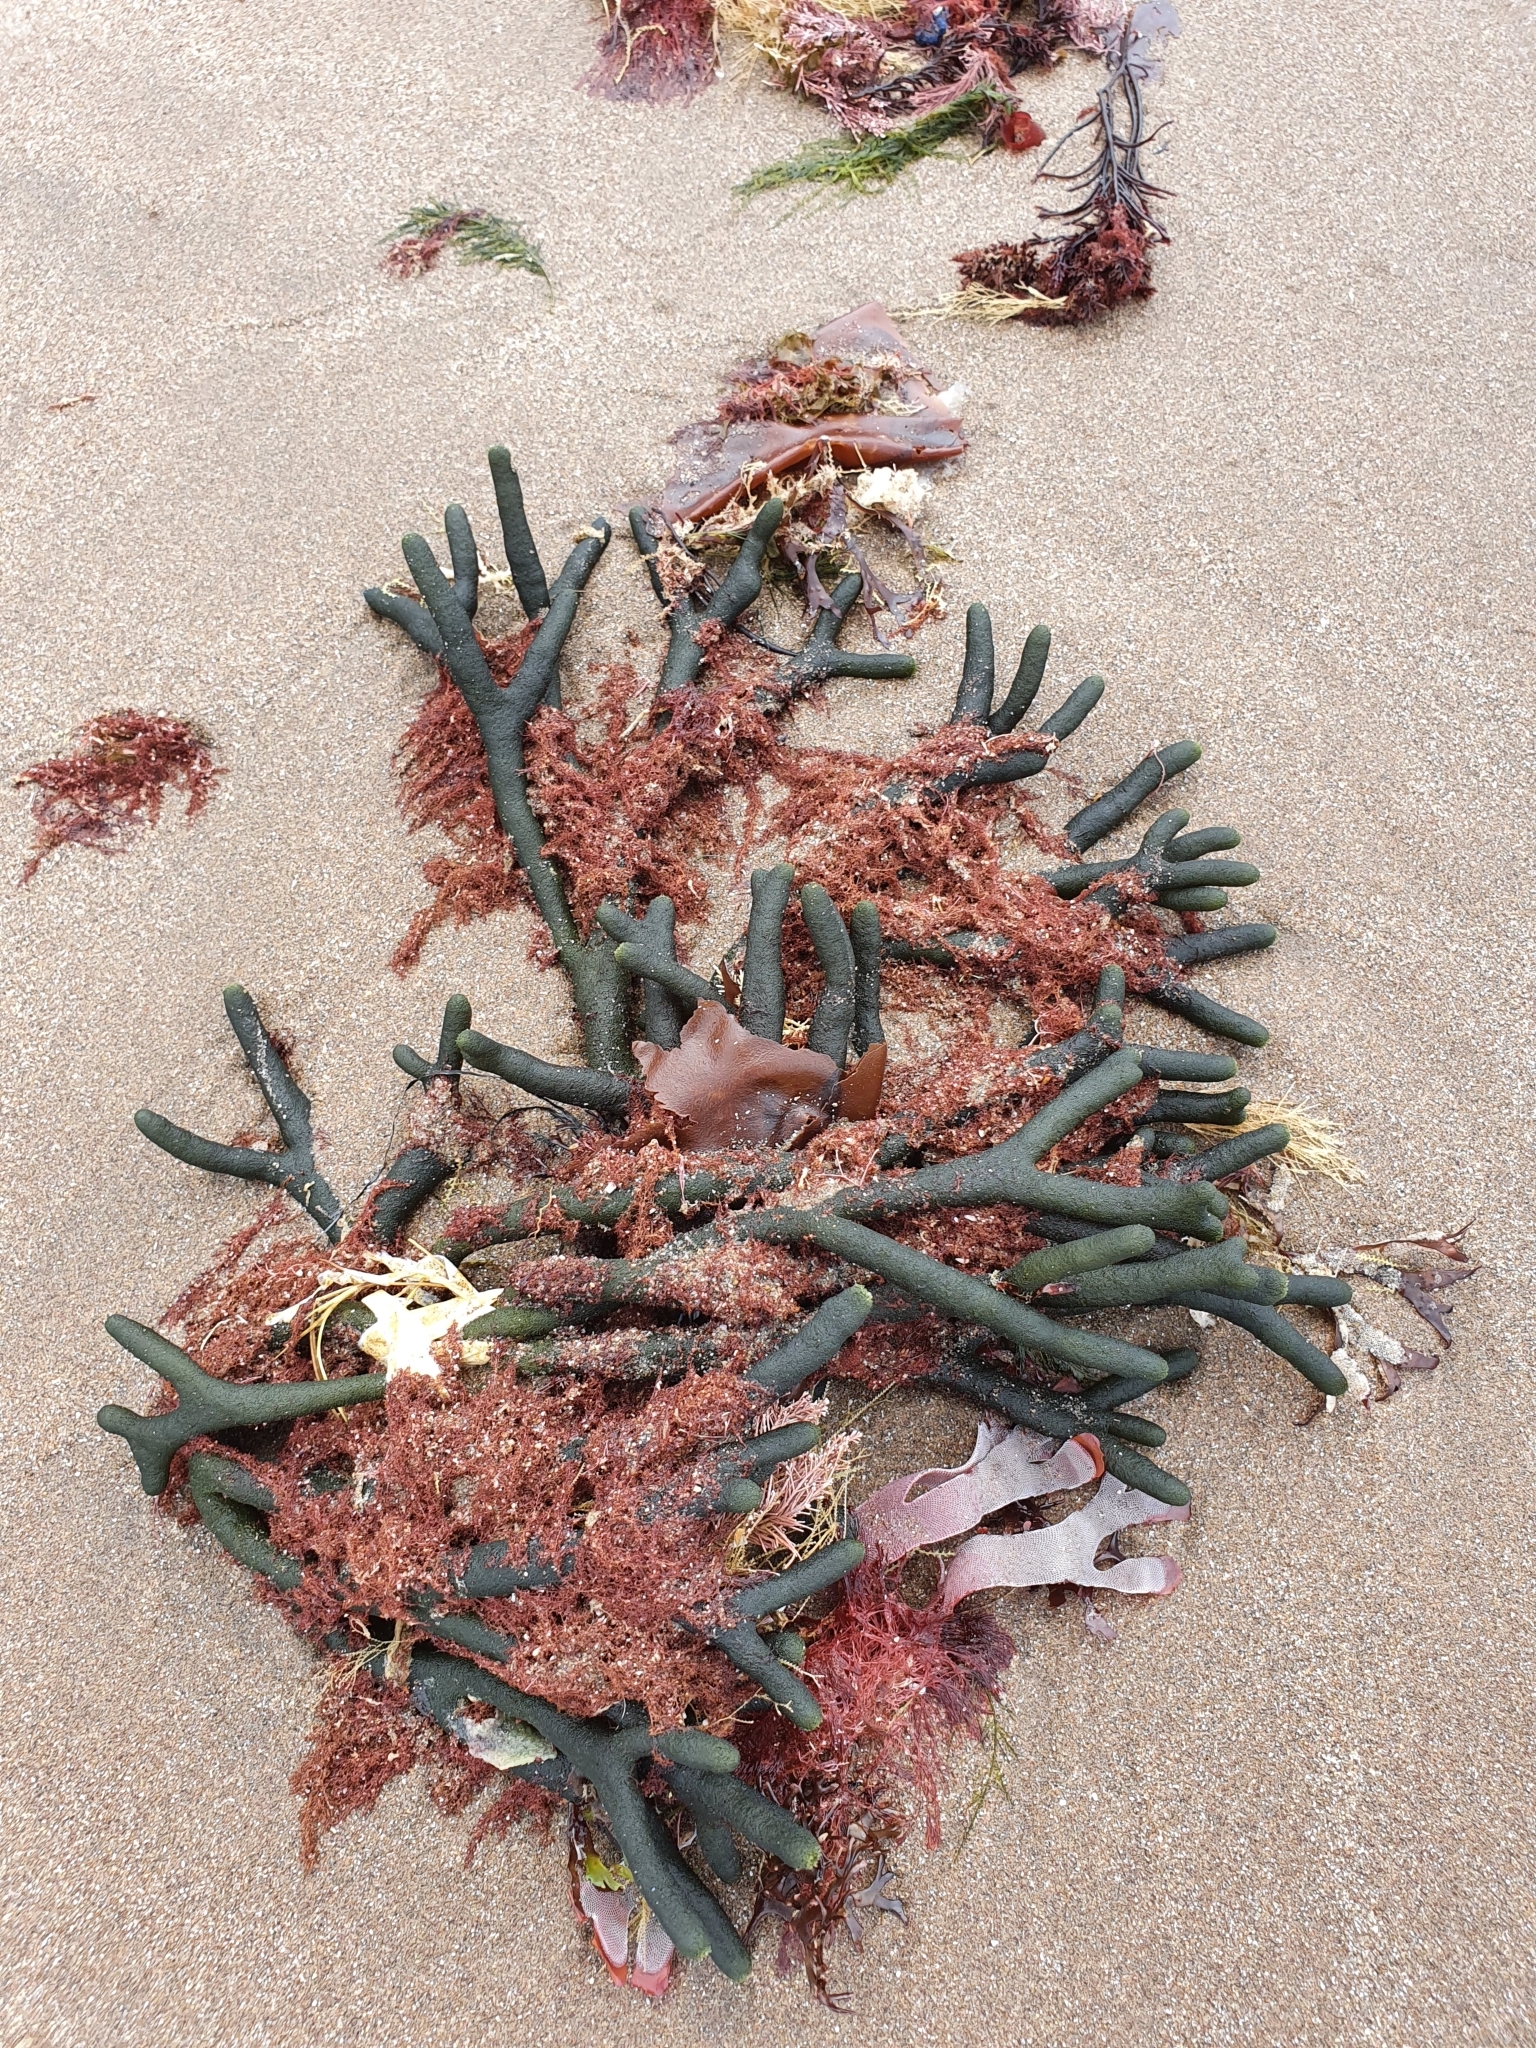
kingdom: Plantae
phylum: Chlorophyta
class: Ulvophyceae
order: Bryopsidales
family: Codiaceae
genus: Codium
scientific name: Codium fragile
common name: Dead man's fingers
